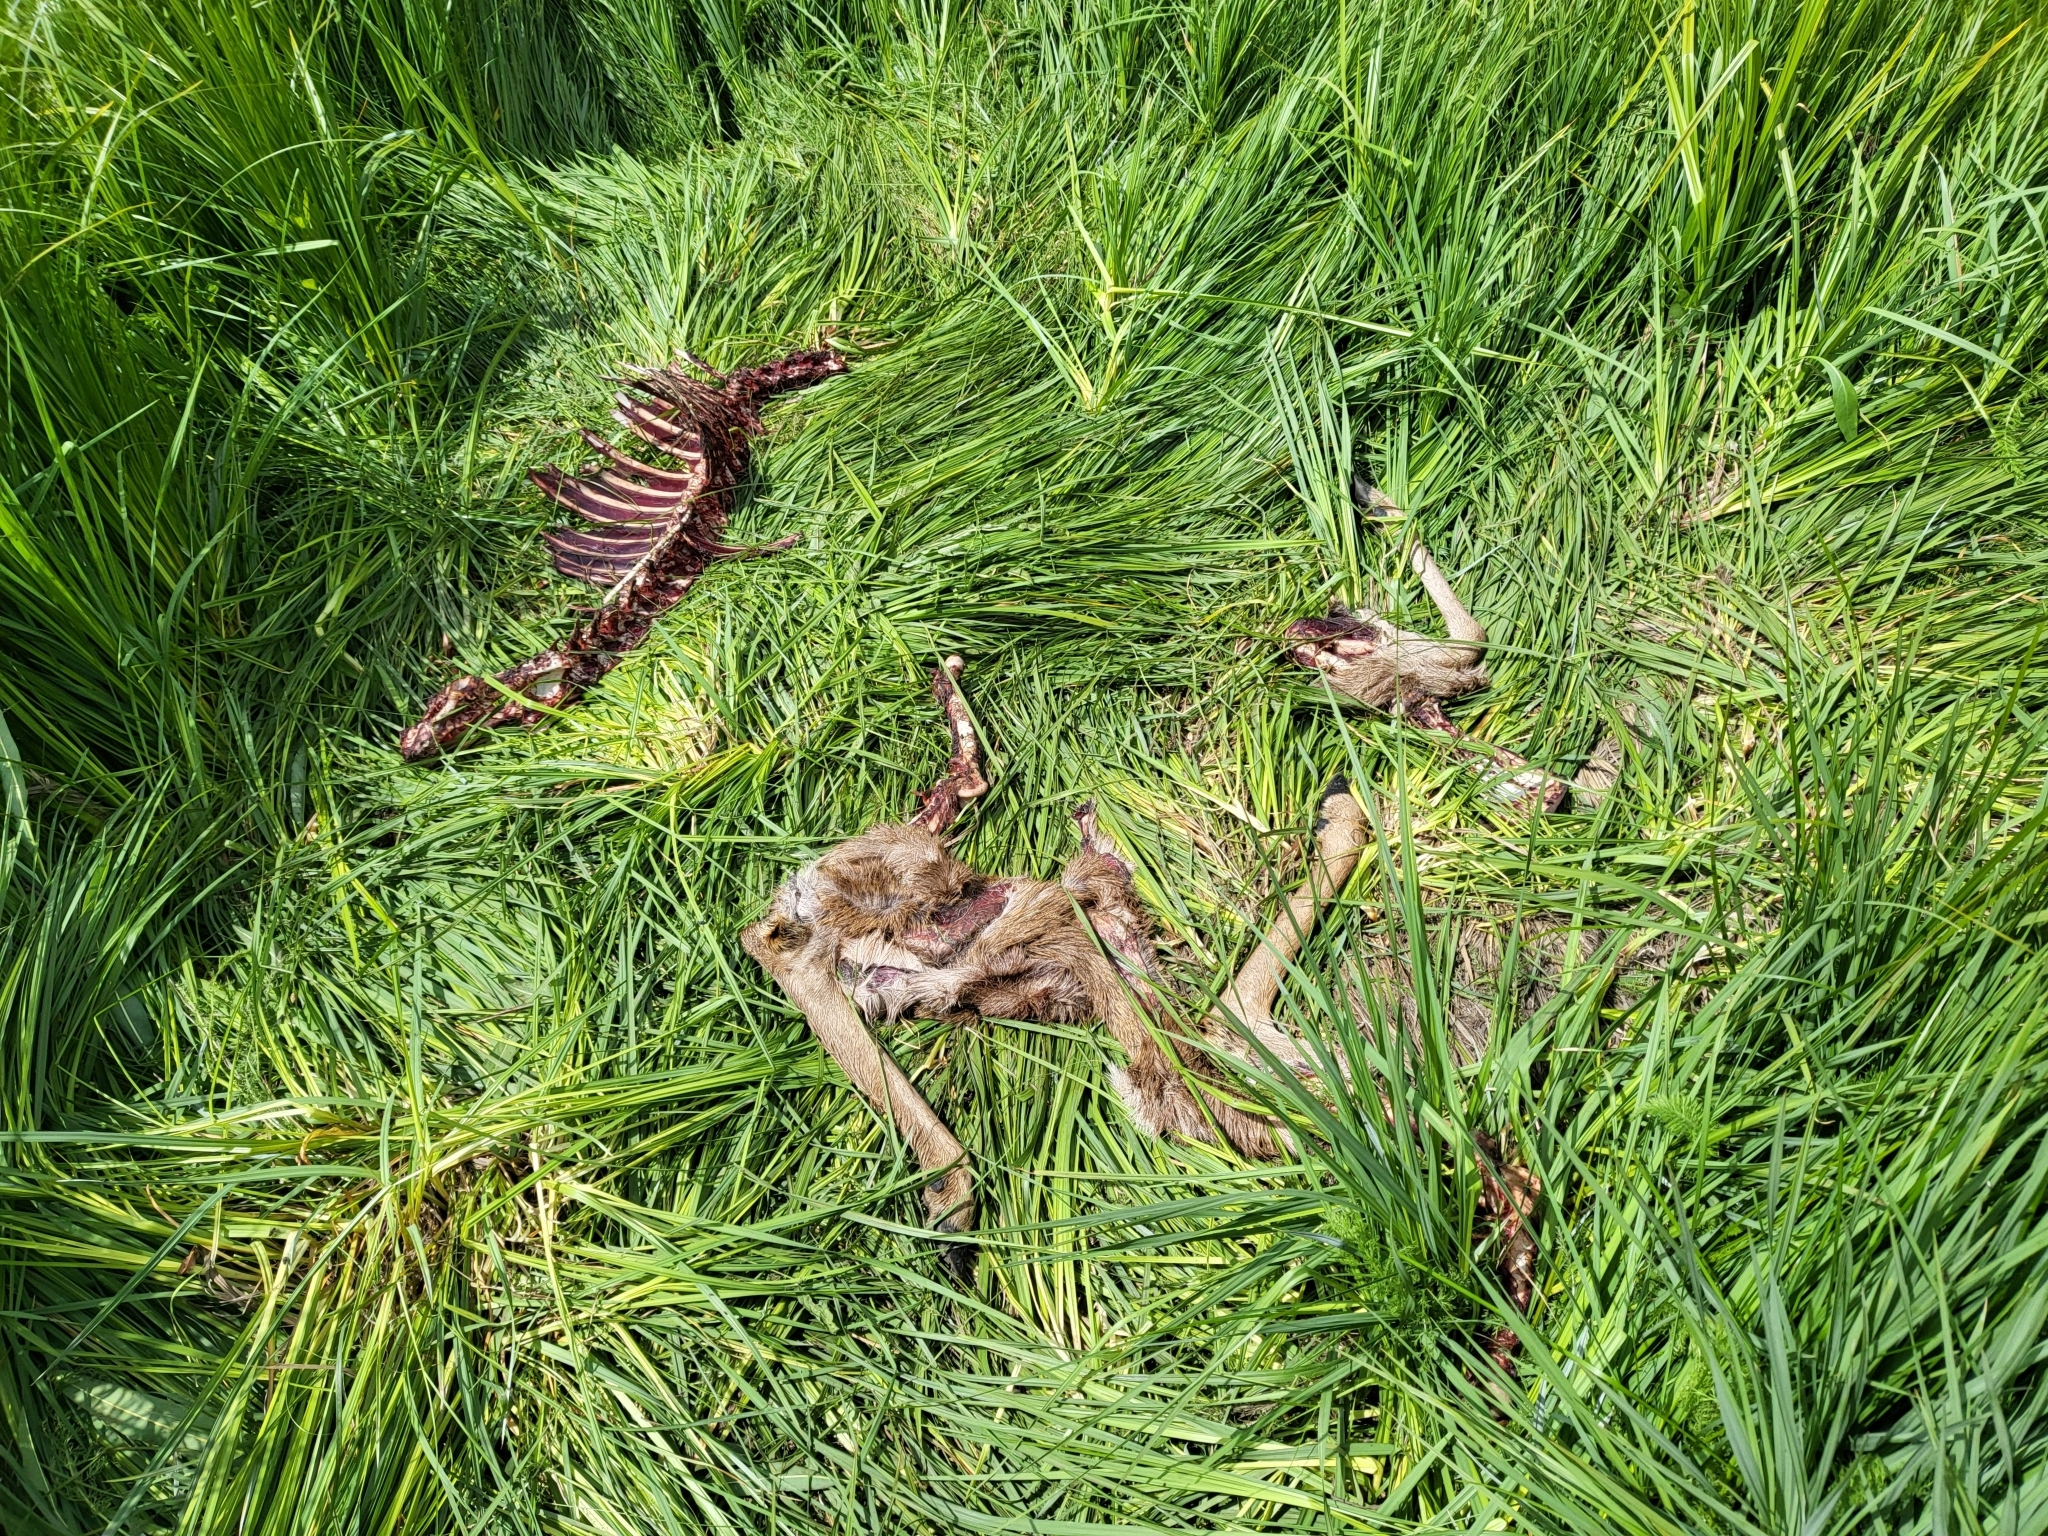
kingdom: Animalia
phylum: Chordata
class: Mammalia
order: Artiodactyla
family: Cervidae
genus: Odocoileus
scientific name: Odocoileus hemionus
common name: Mule deer
